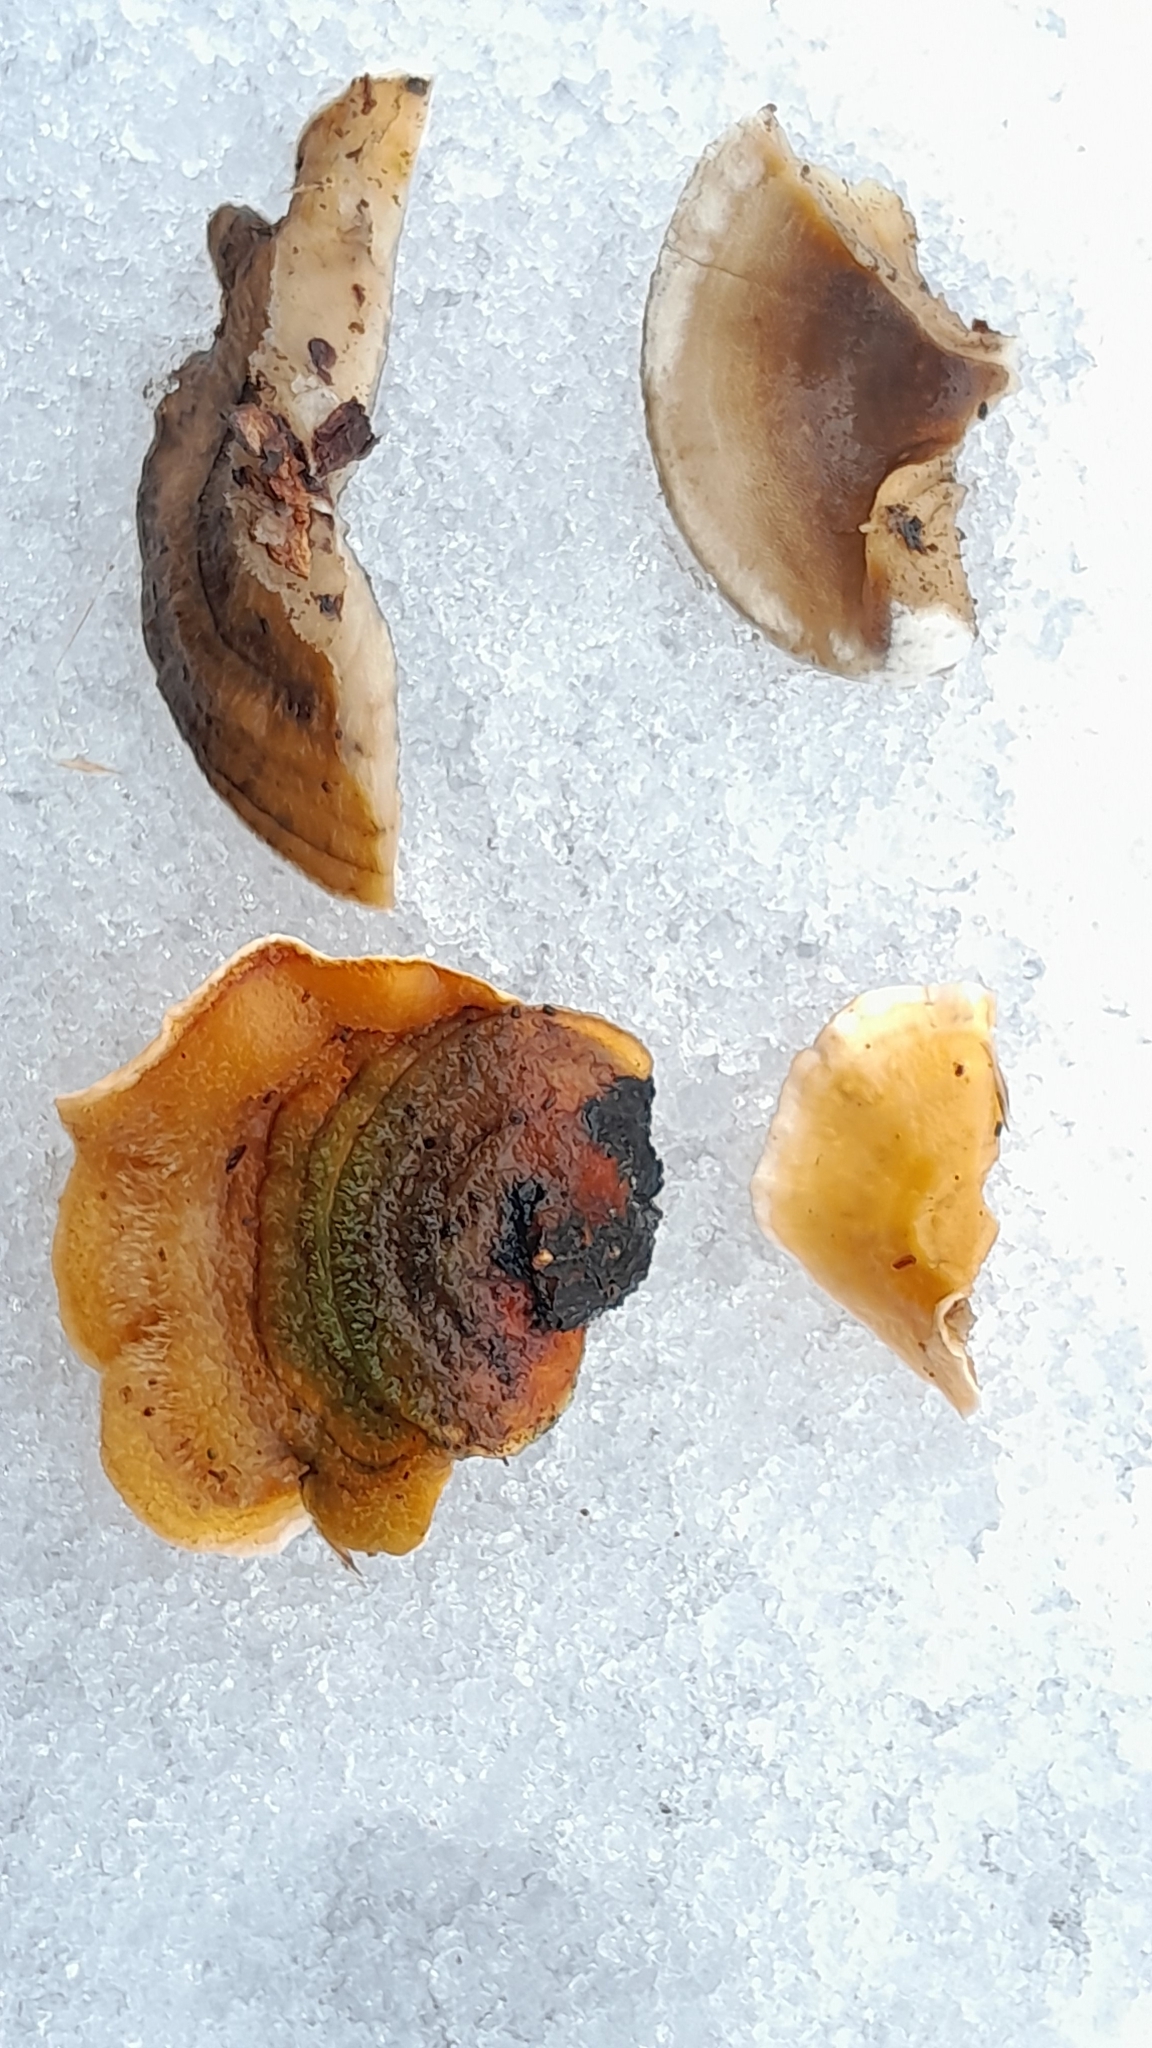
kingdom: Fungi
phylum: Basidiomycota
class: Agaricomycetes
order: Russulales
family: Stereaceae
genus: Stereum
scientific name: Stereum hirsutum
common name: Hairy curtain crust
